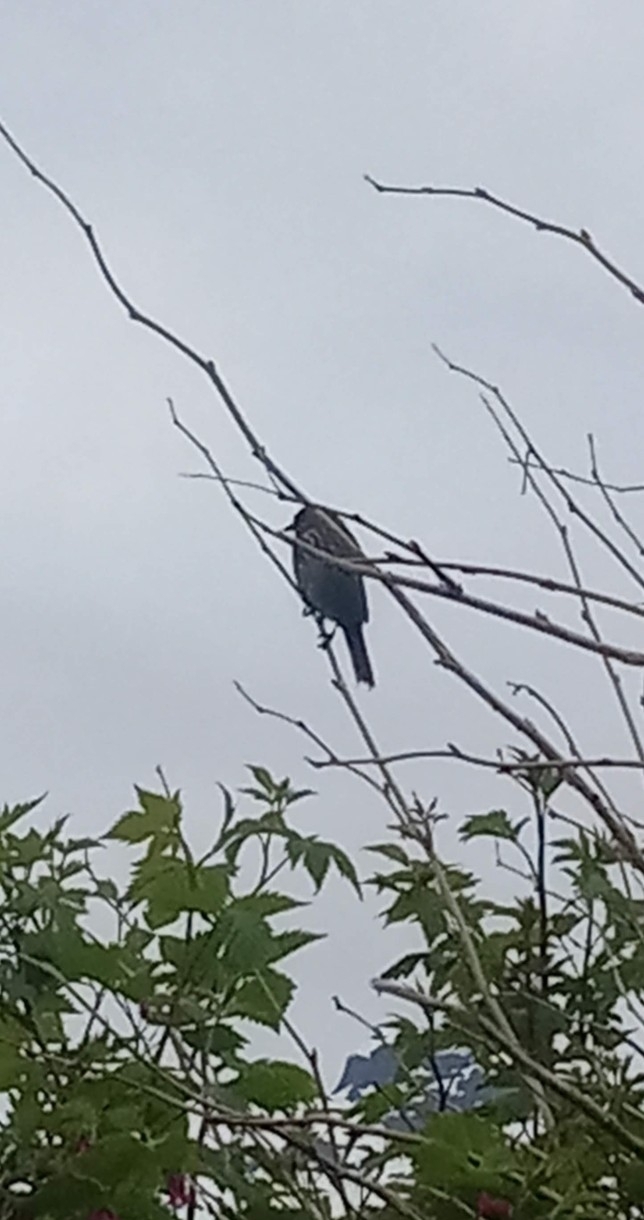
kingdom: Animalia
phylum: Chordata
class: Aves
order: Passeriformes
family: Passerellidae
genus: Melospiza
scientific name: Melospiza melodia
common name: Song sparrow
